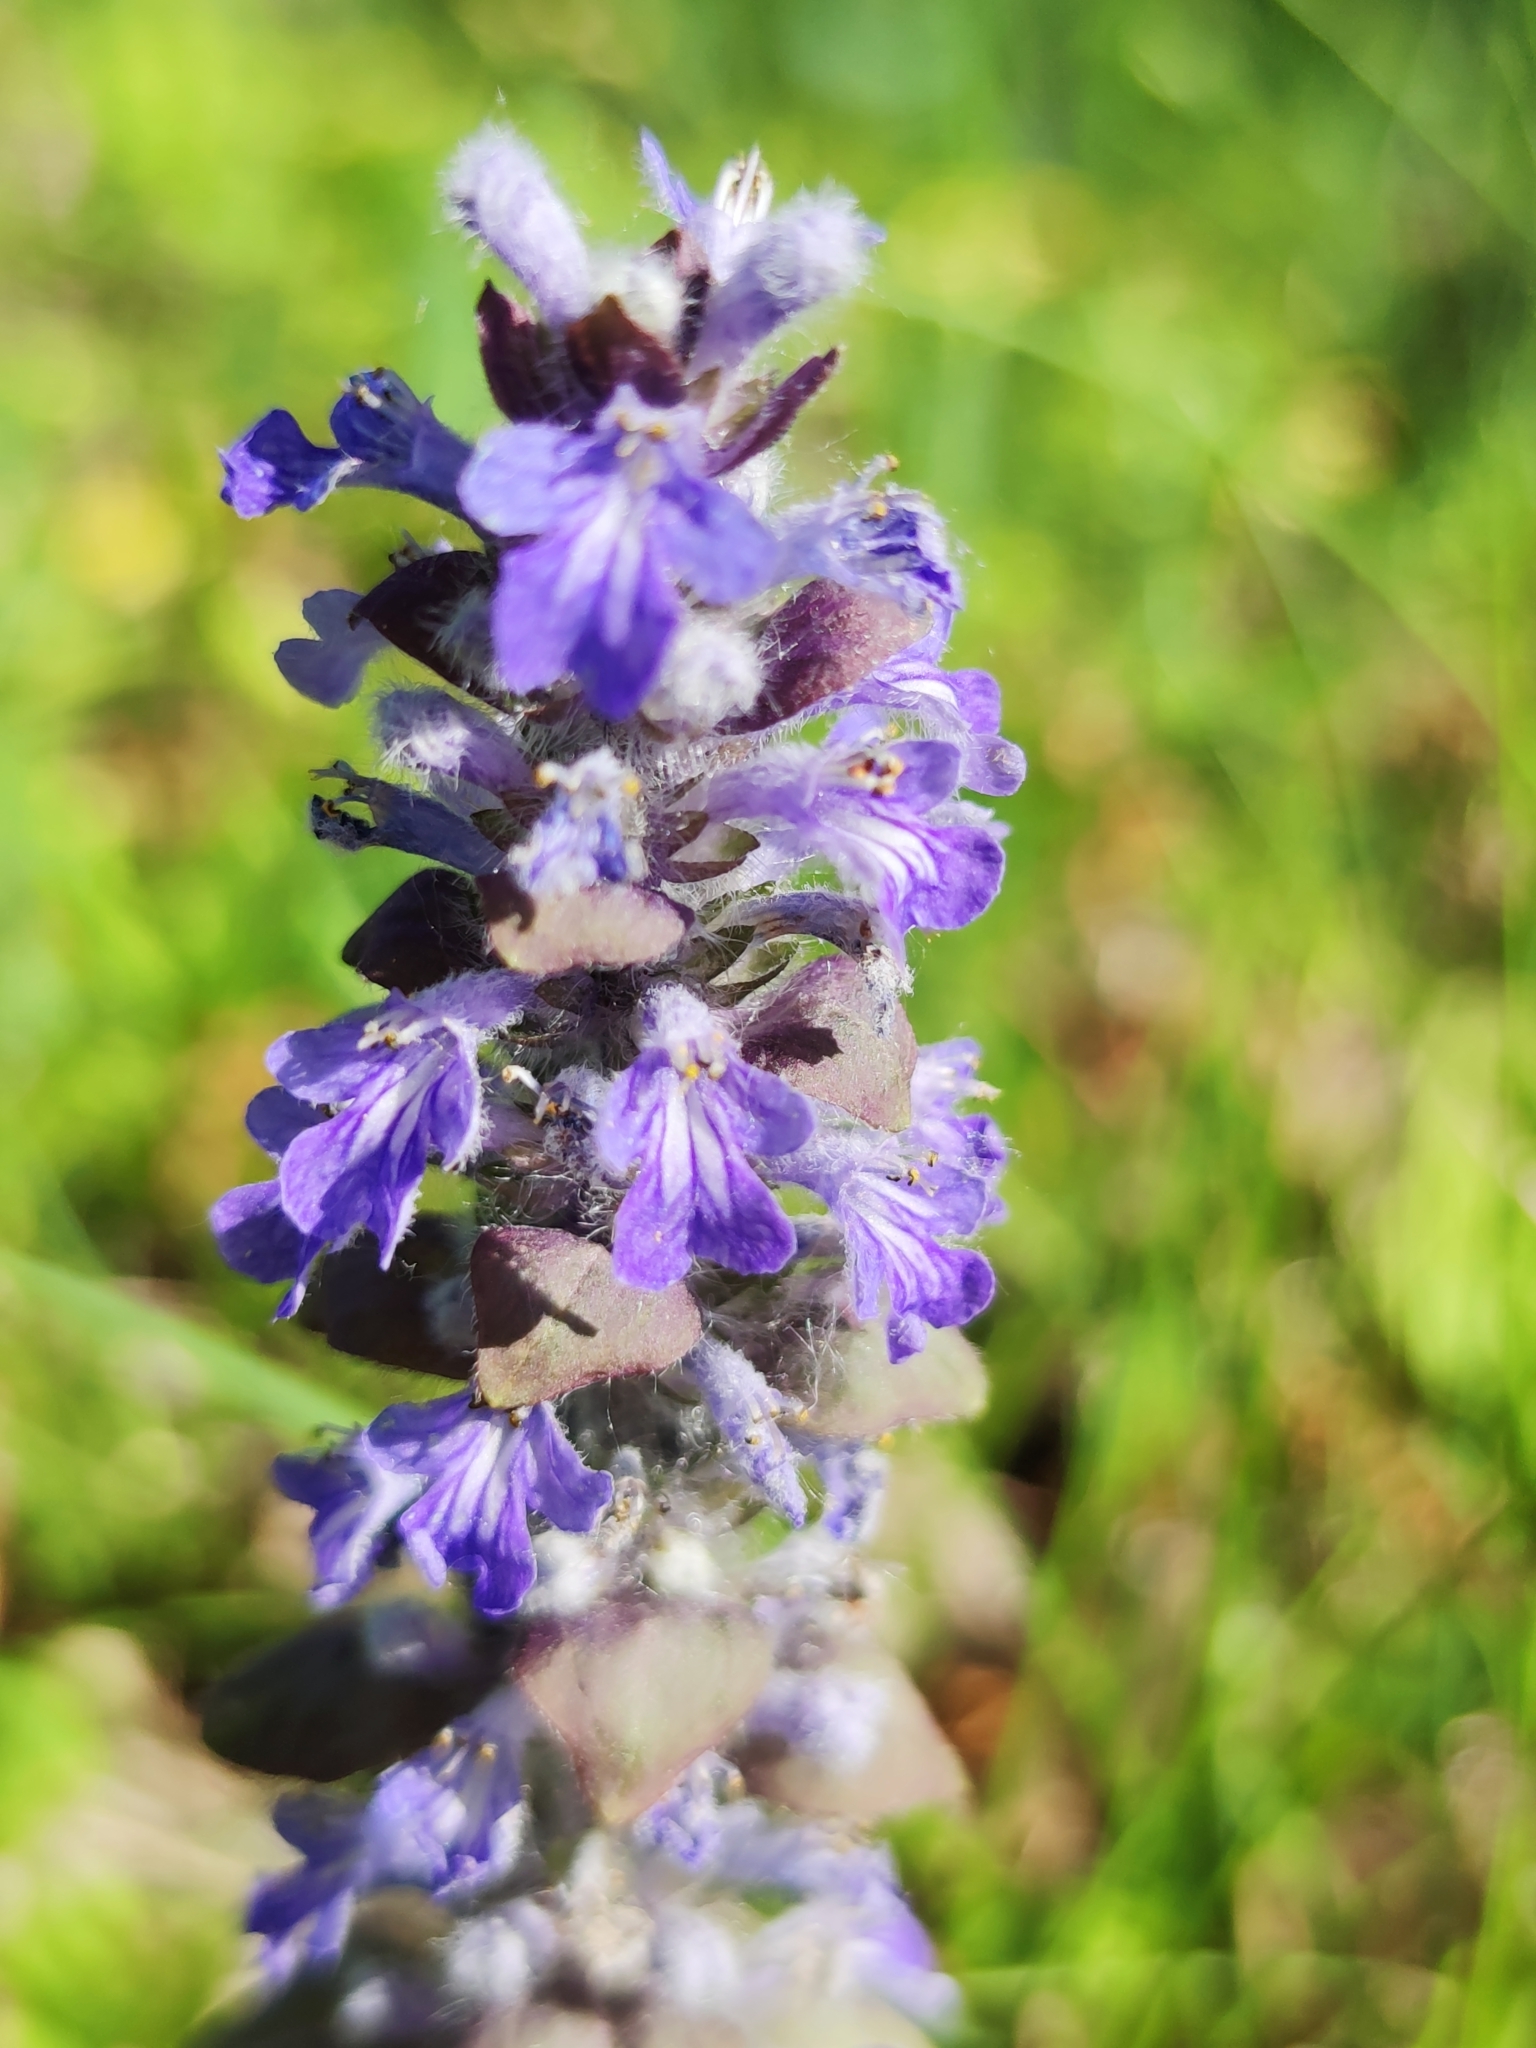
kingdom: Plantae
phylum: Tracheophyta
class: Magnoliopsida
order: Lamiales
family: Lamiaceae
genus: Ajuga
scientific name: Ajuga reptans
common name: Bugle
